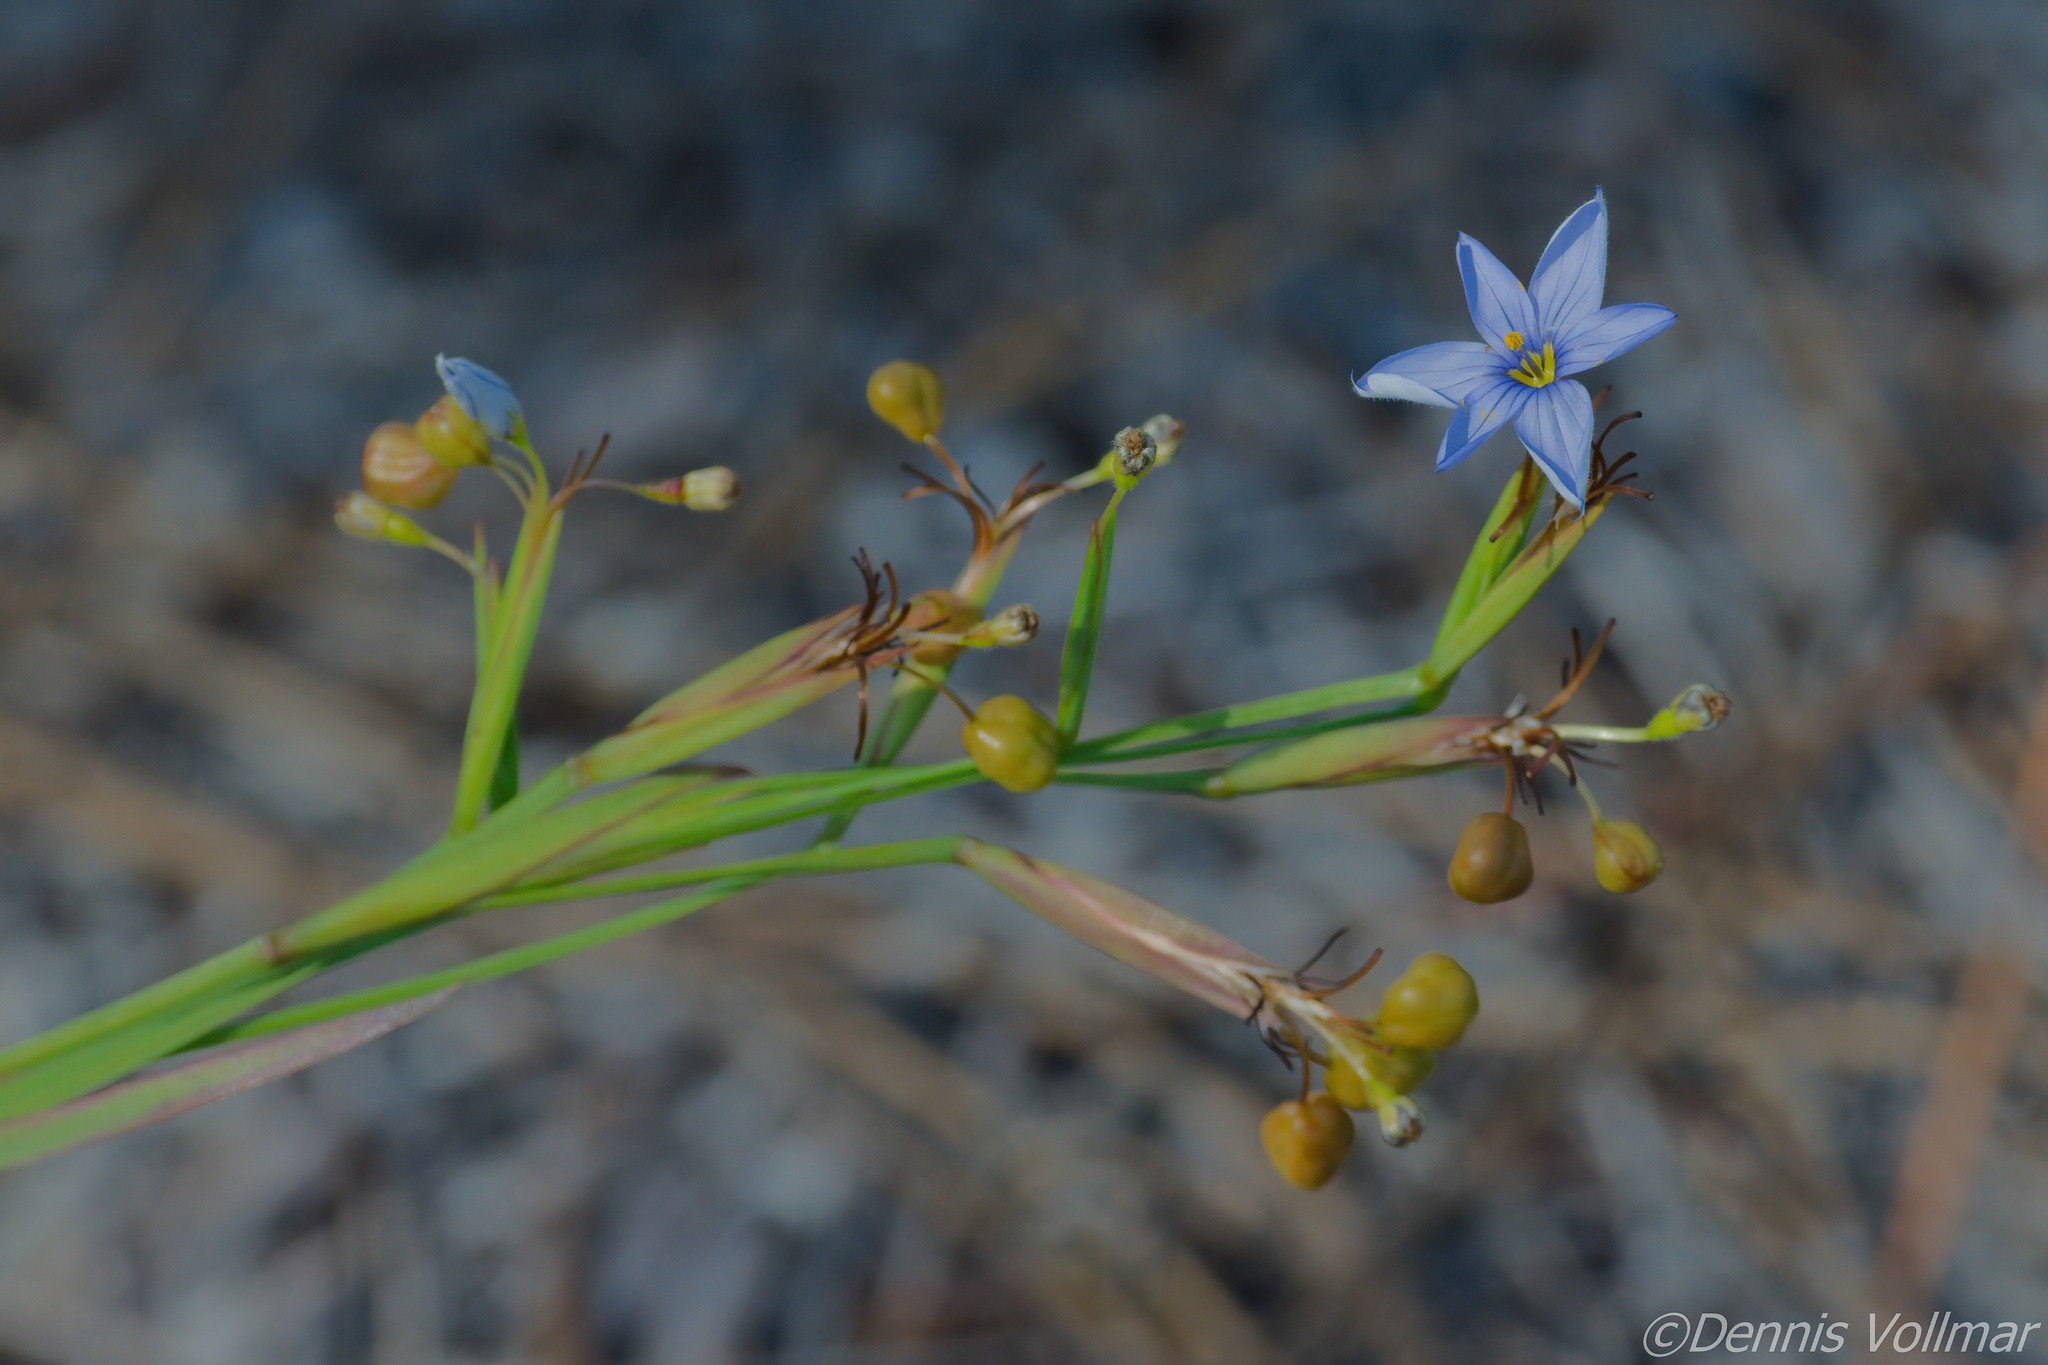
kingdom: Plantae
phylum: Tracheophyta
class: Liliopsida
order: Asparagales
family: Iridaceae
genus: Sisyrinchium
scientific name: Sisyrinchium xerophyllum
